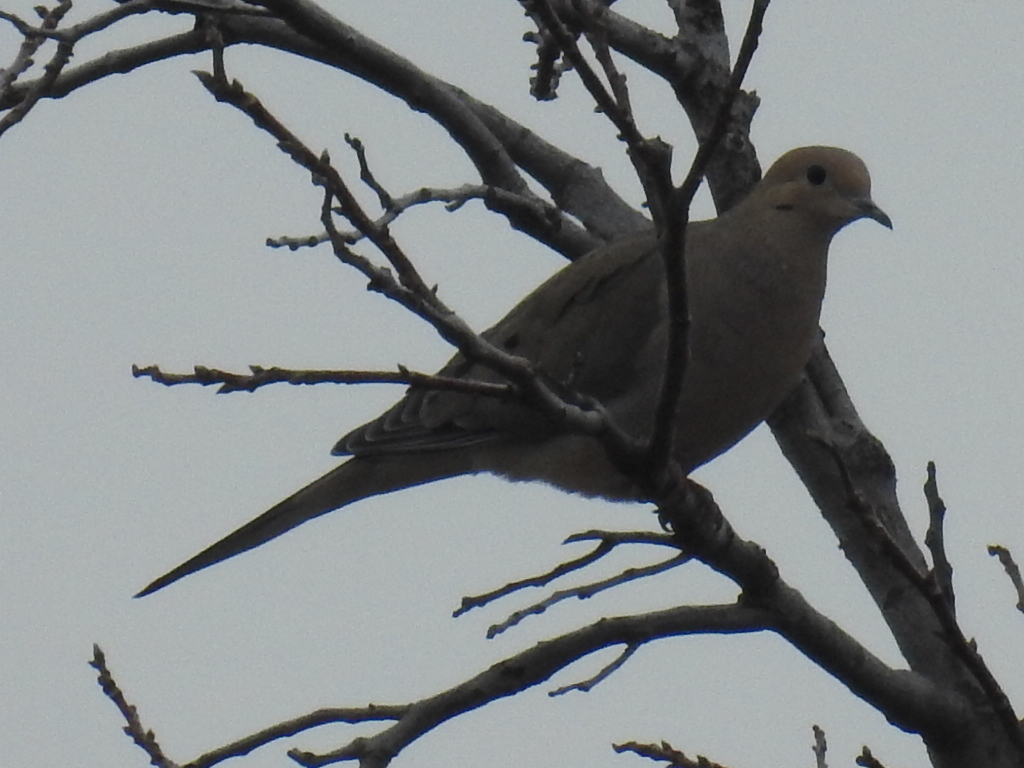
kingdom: Animalia
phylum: Chordata
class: Aves
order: Columbiformes
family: Columbidae
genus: Zenaida
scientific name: Zenaida macroura
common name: Mourning dove
